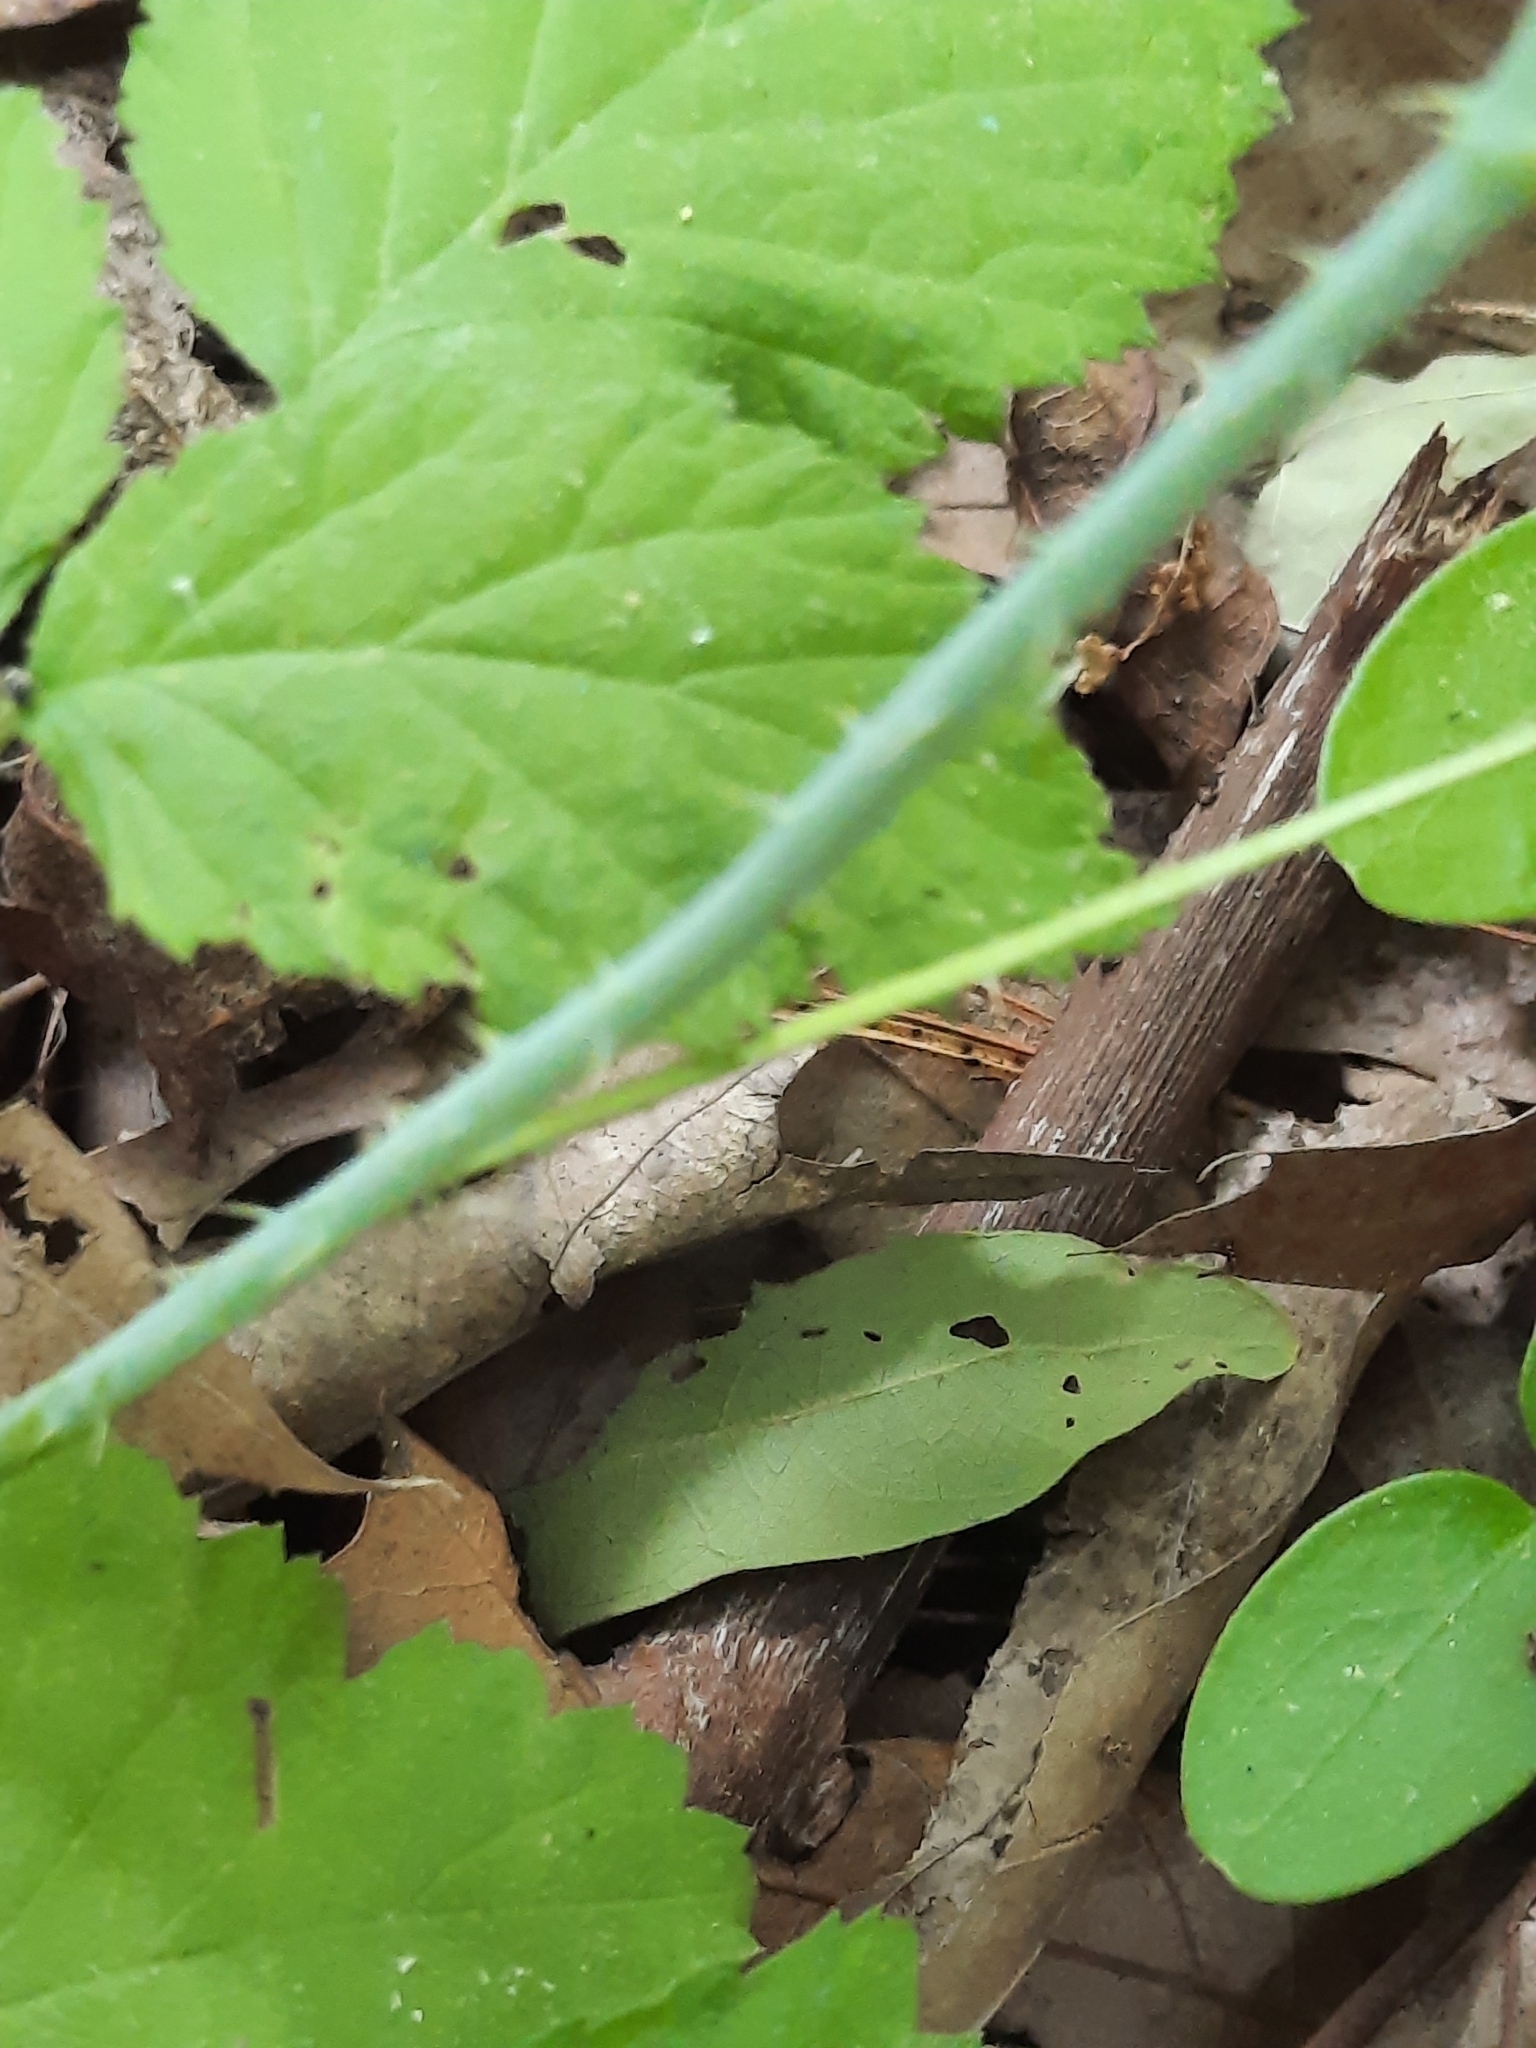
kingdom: Plantae
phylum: Tracheophyta
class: Magnoliopsida
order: Rosales
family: Rosaceae
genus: Rubus
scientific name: Rubus occidentalis
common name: Black raspberry
